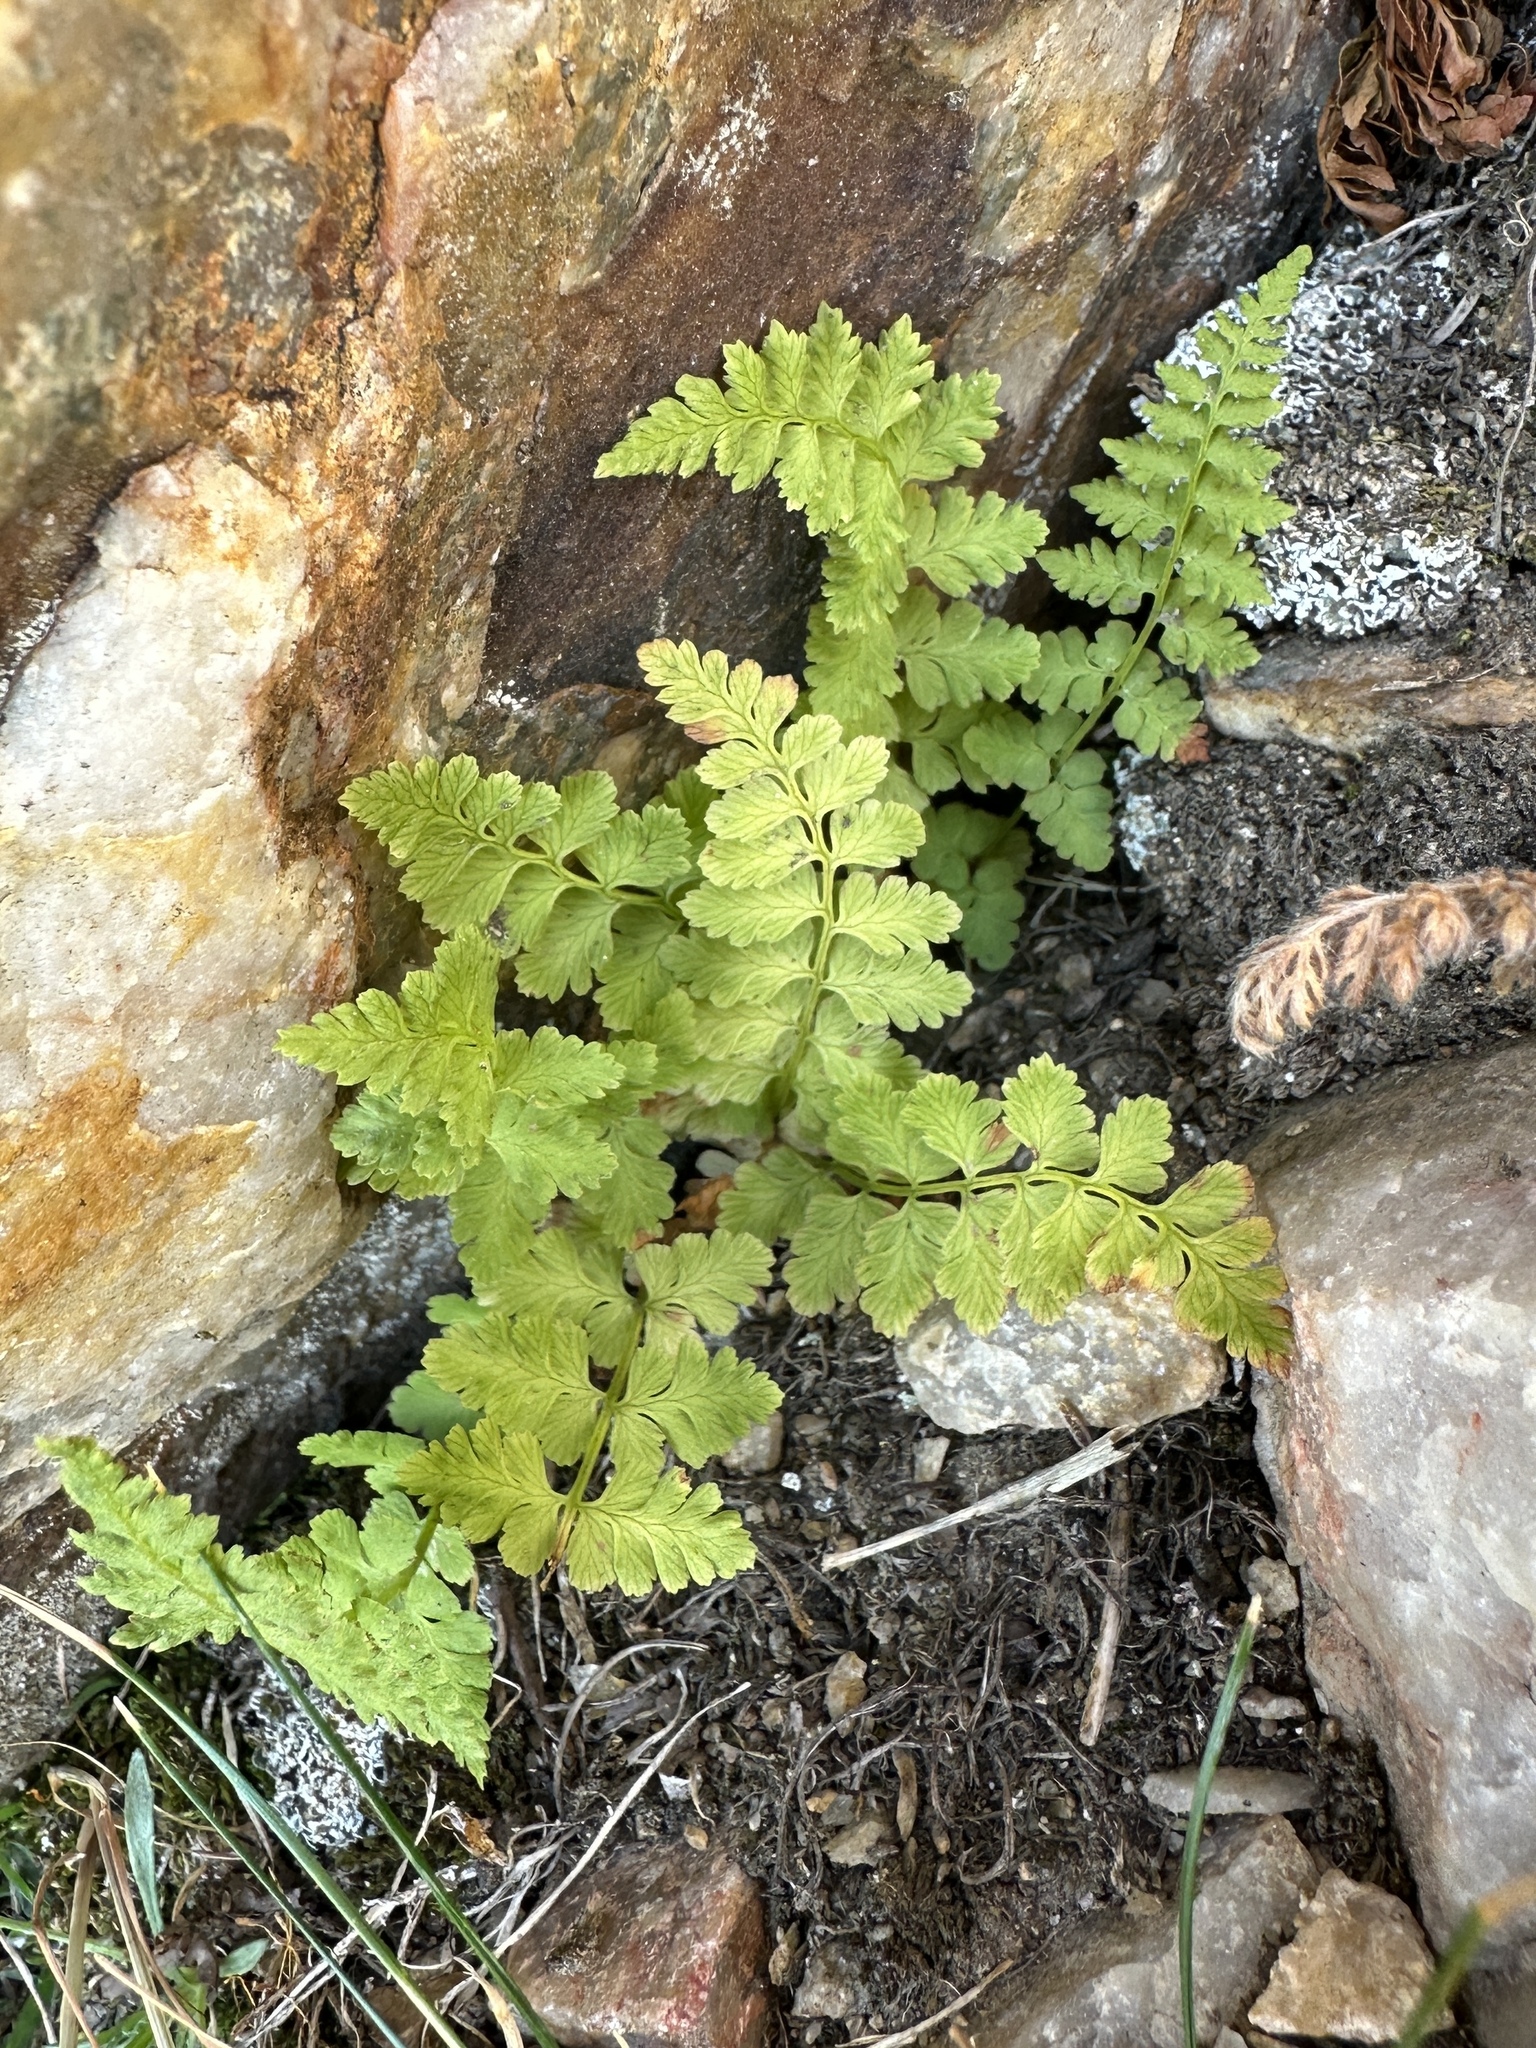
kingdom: Plantae
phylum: Tracheophyta
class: Polypodiopsida
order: Polypodiales
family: Cystopteridaceae
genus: Cystopteris
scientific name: Cystopteris fragilis
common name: Brittle bladder fern
